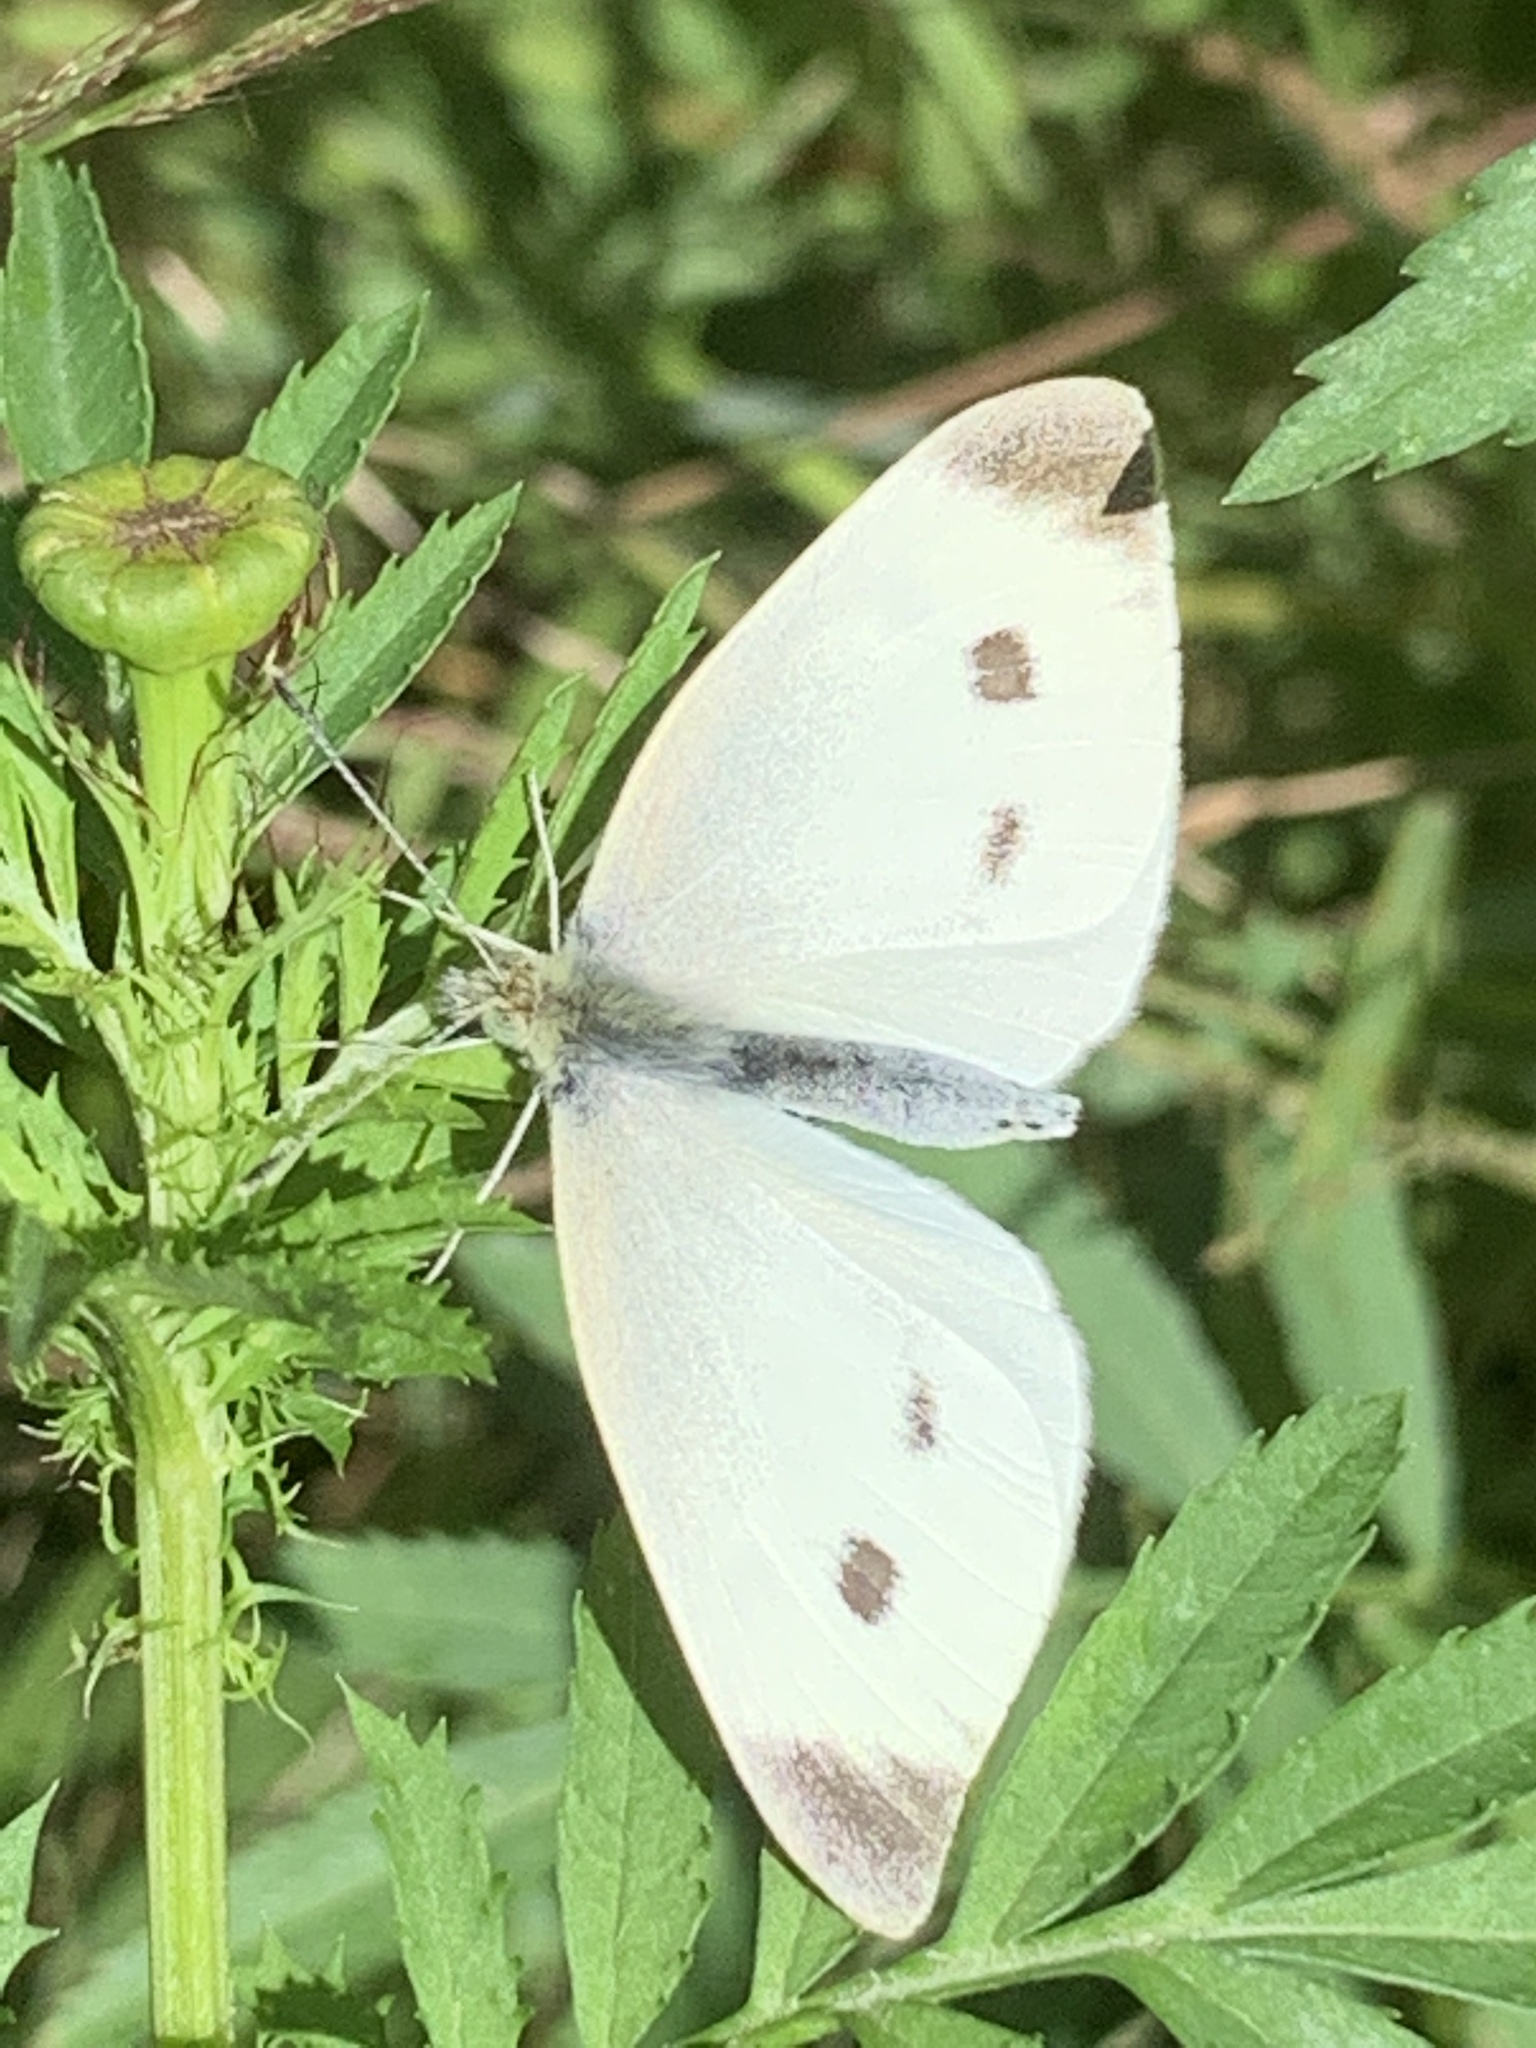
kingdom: Animalia
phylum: Arthropoda
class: Insecta
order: Lepidoptera
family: Pieridae
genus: Pieris
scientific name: Pieris rapae
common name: Small white
